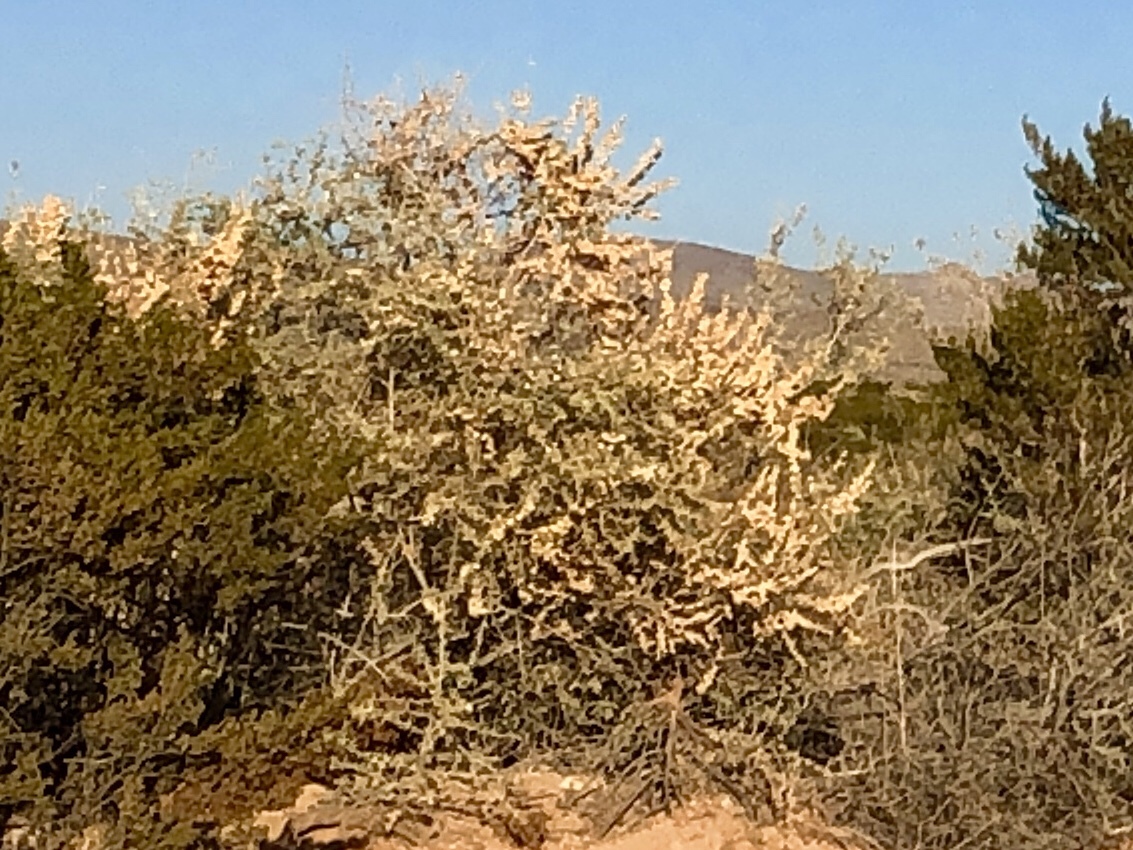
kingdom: Plantae
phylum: Tracheophyta
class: Magnoliopsida
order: Caryophyllales
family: Amaranthaceae
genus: Atriplex
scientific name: Atriplex canescens
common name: Four-wing saltbush
